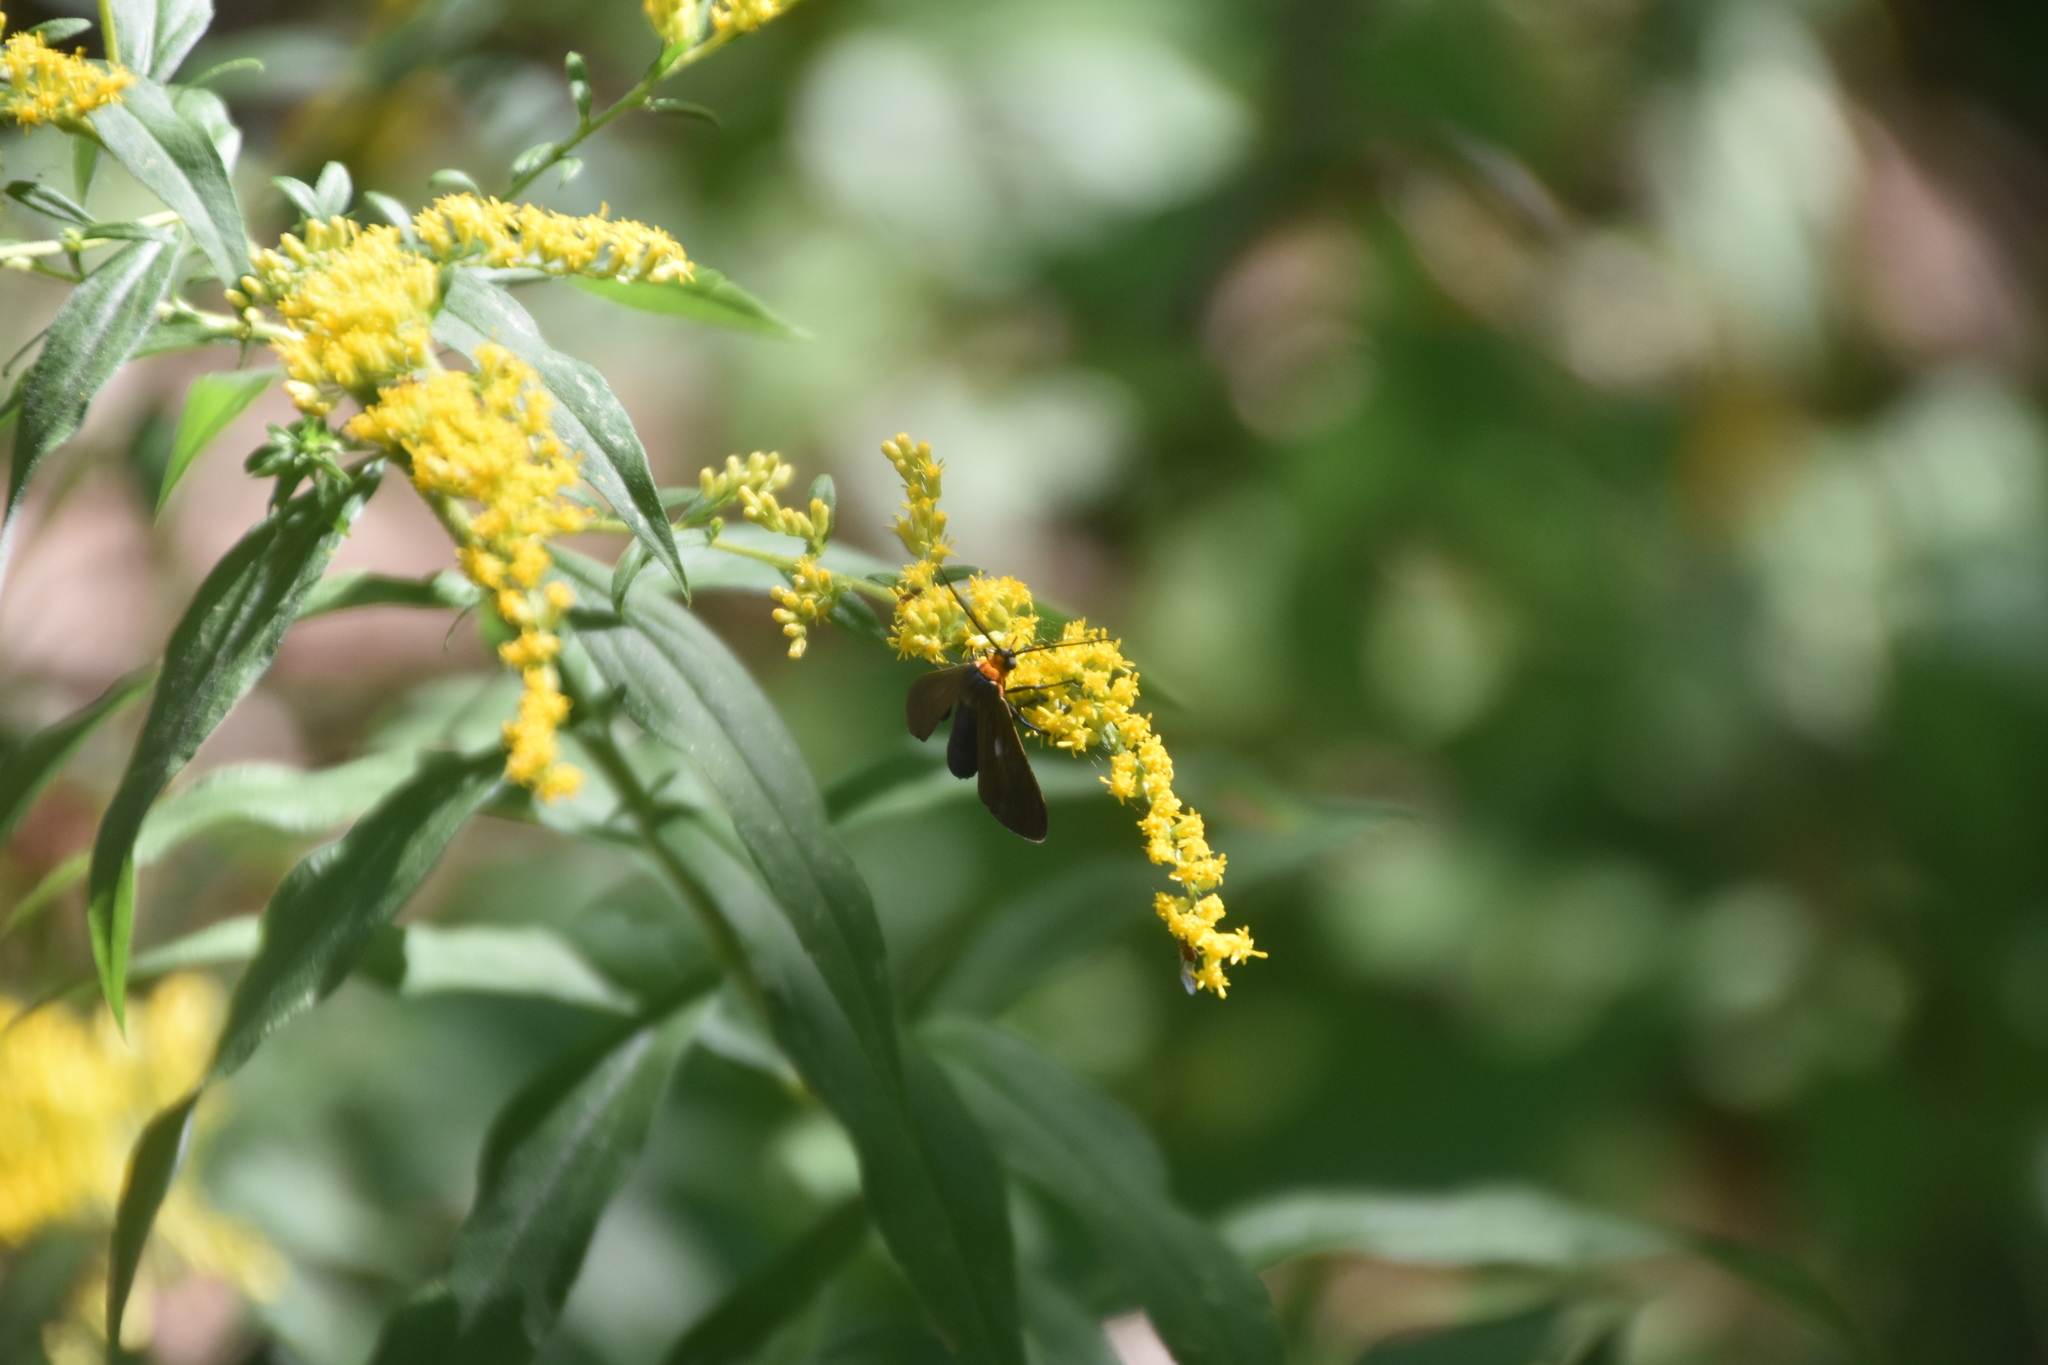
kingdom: Animalia
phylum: Arthropoda
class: Insecta
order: Lepidoptera
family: Erebidae
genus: Cisseps
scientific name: Cisseps fulvicollis
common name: Yellow-collared scape moth
